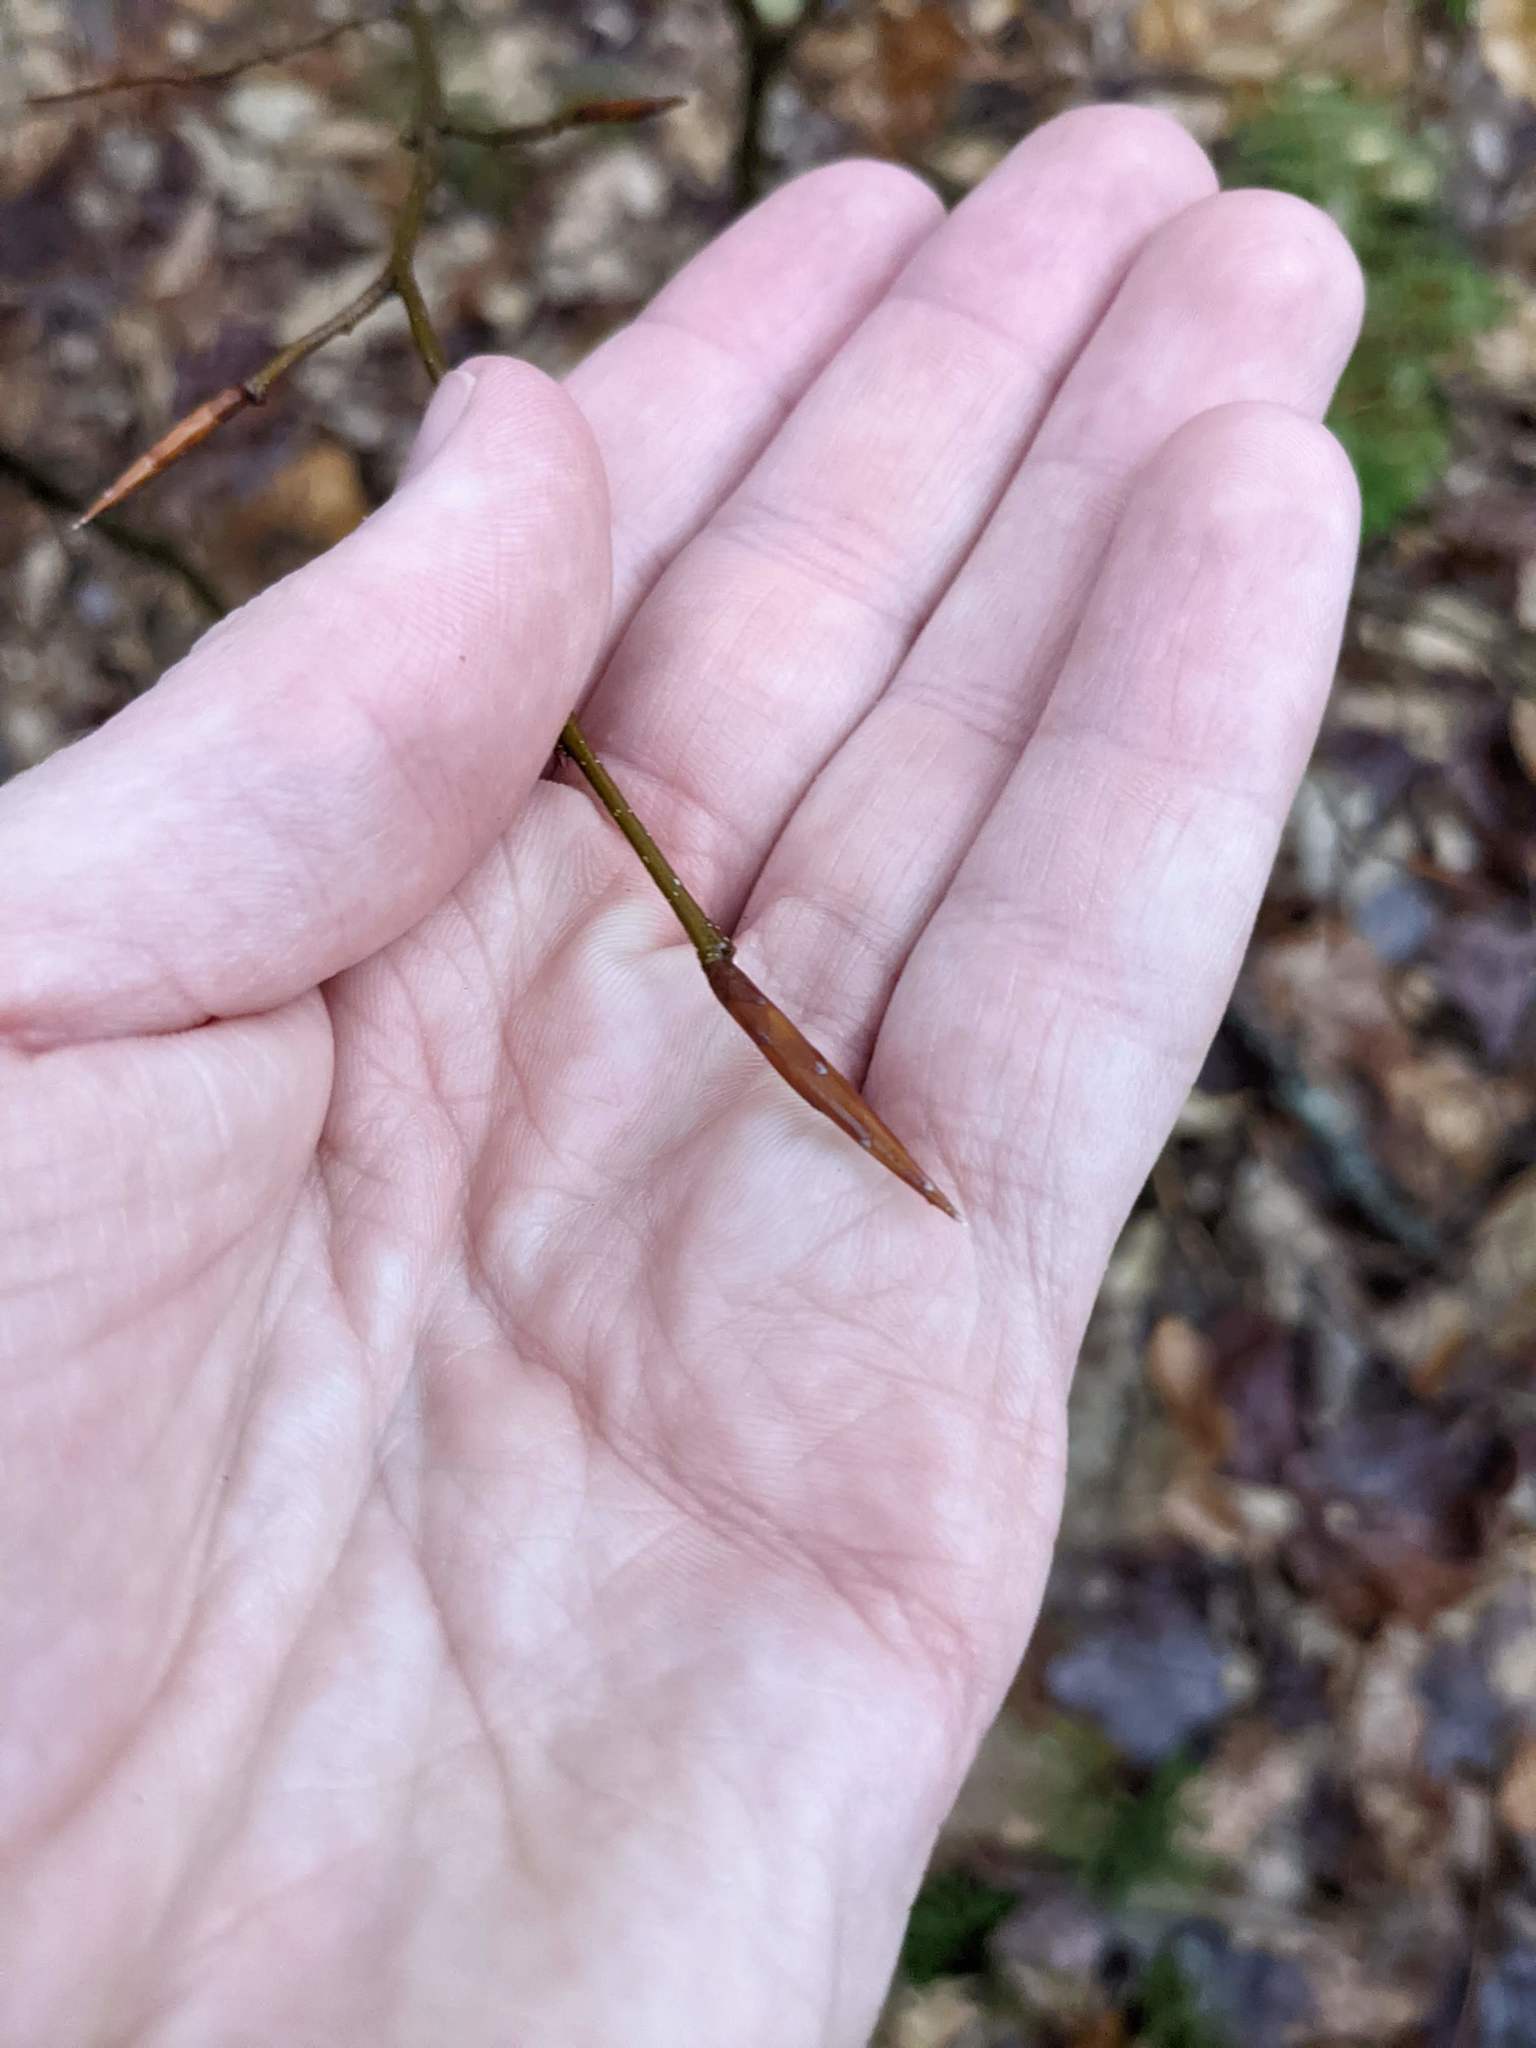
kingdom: Plantae
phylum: Tracheophyta
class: Magnoliopsida
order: Fagales
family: Fagaceae
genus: Fagus
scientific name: Fagus grandifolia
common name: American beech
